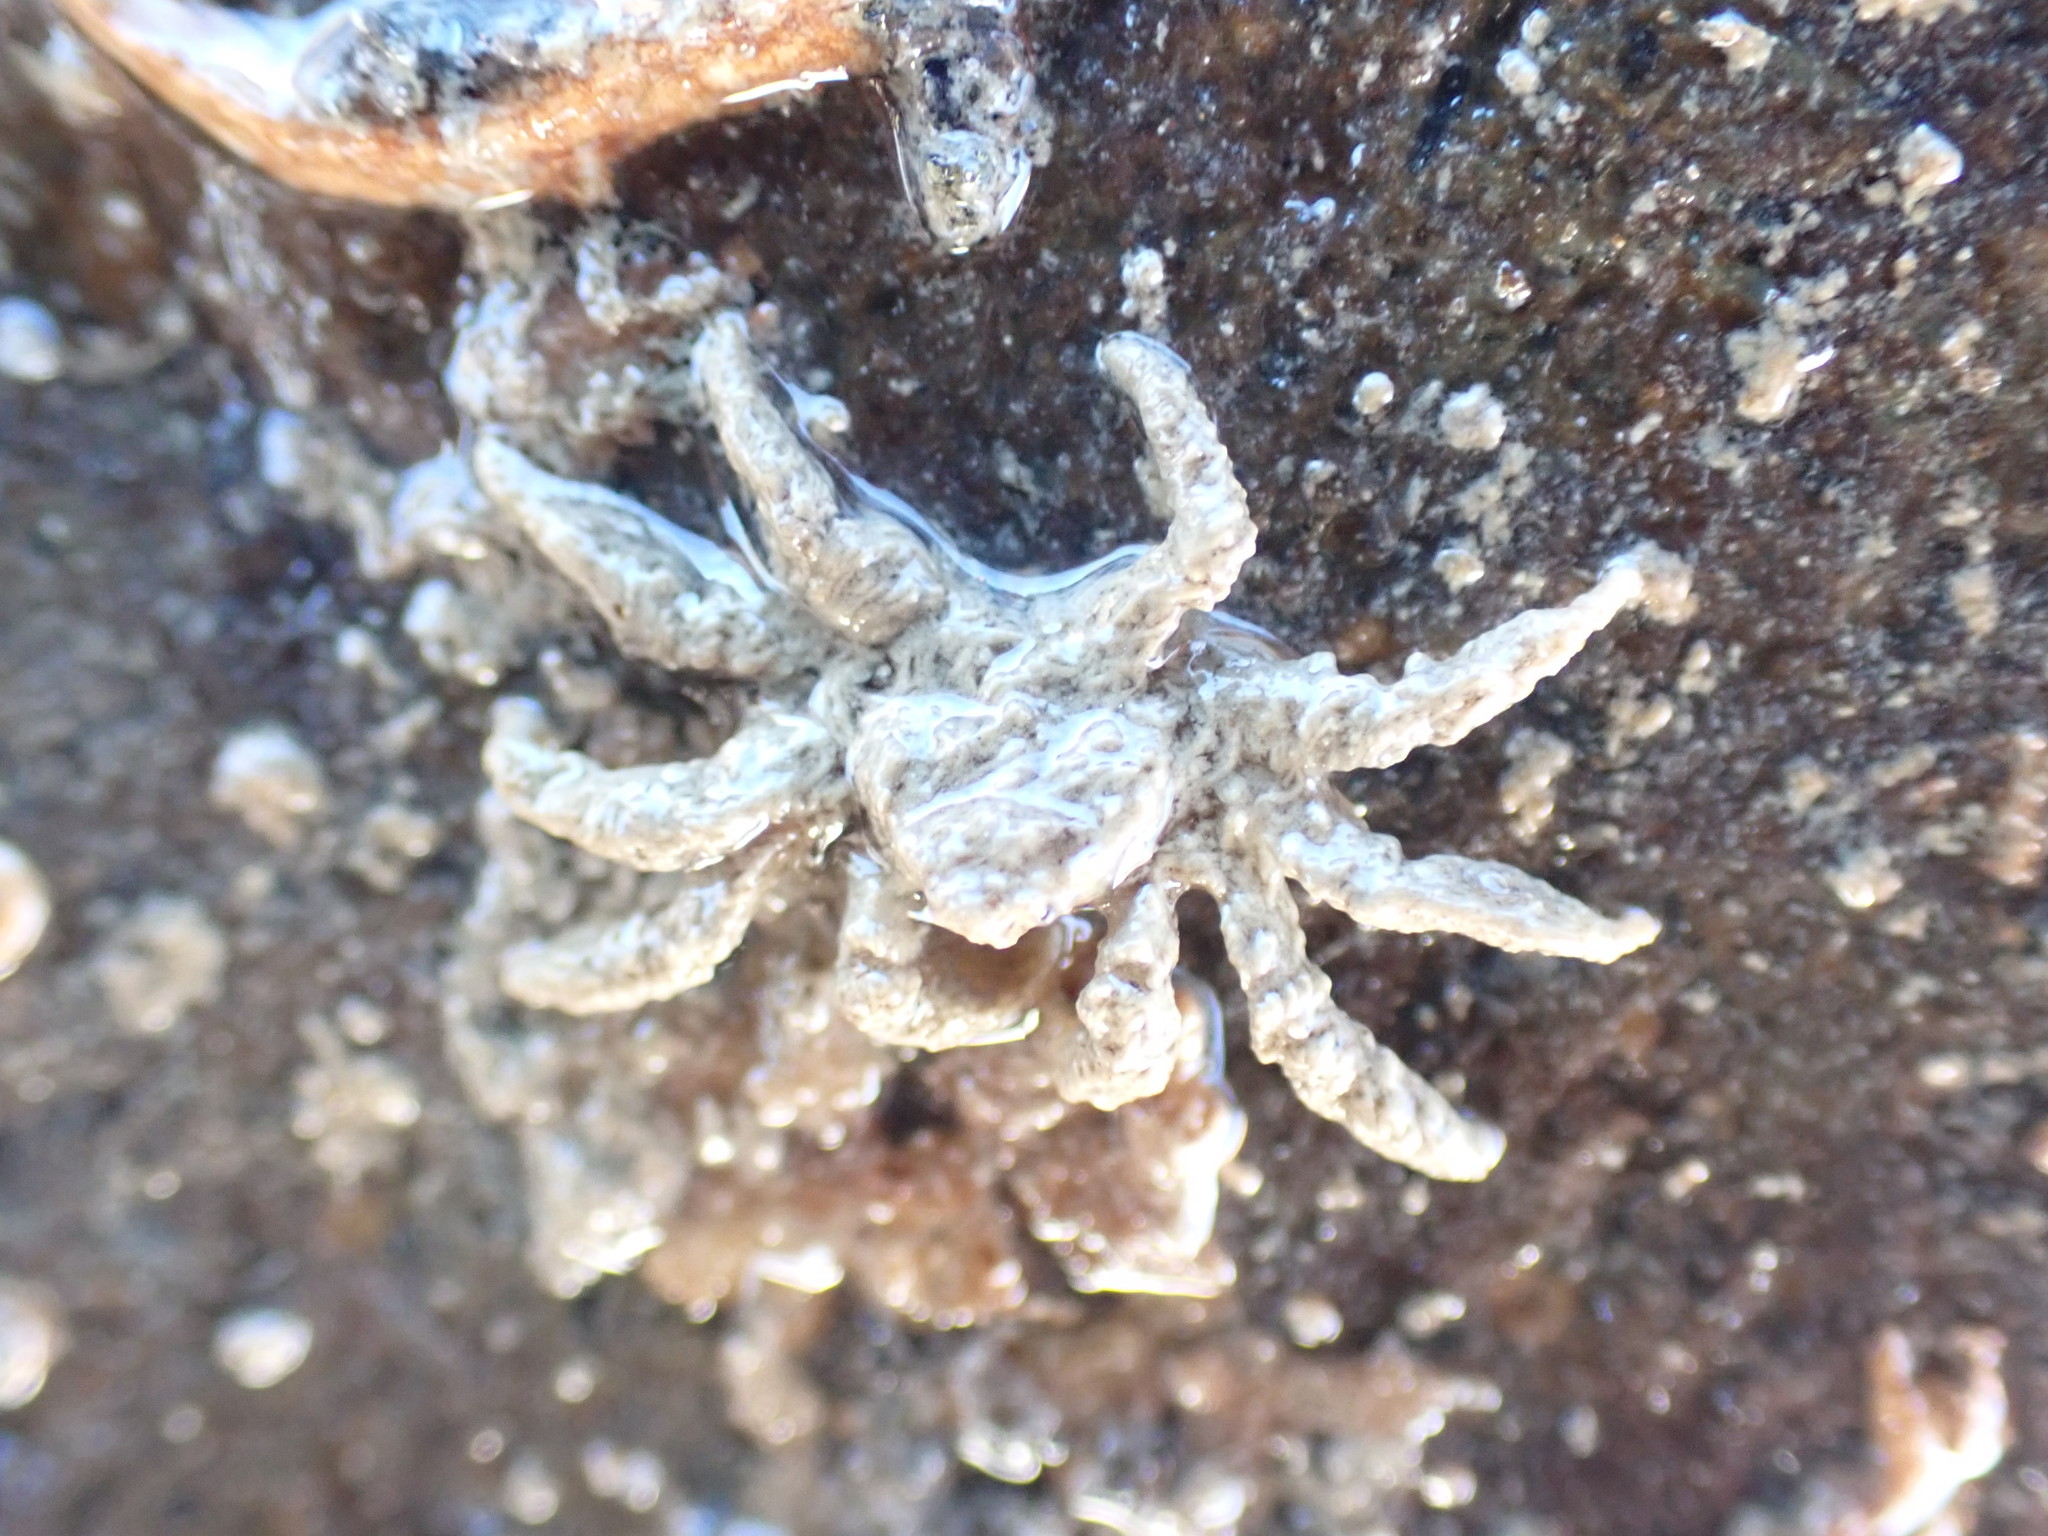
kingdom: Animalia
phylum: Arthropoda
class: Malacostraca
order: Decapoda
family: Hymenosomatidae
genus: Neohymenicus
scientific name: Neohymenicus pubescens
